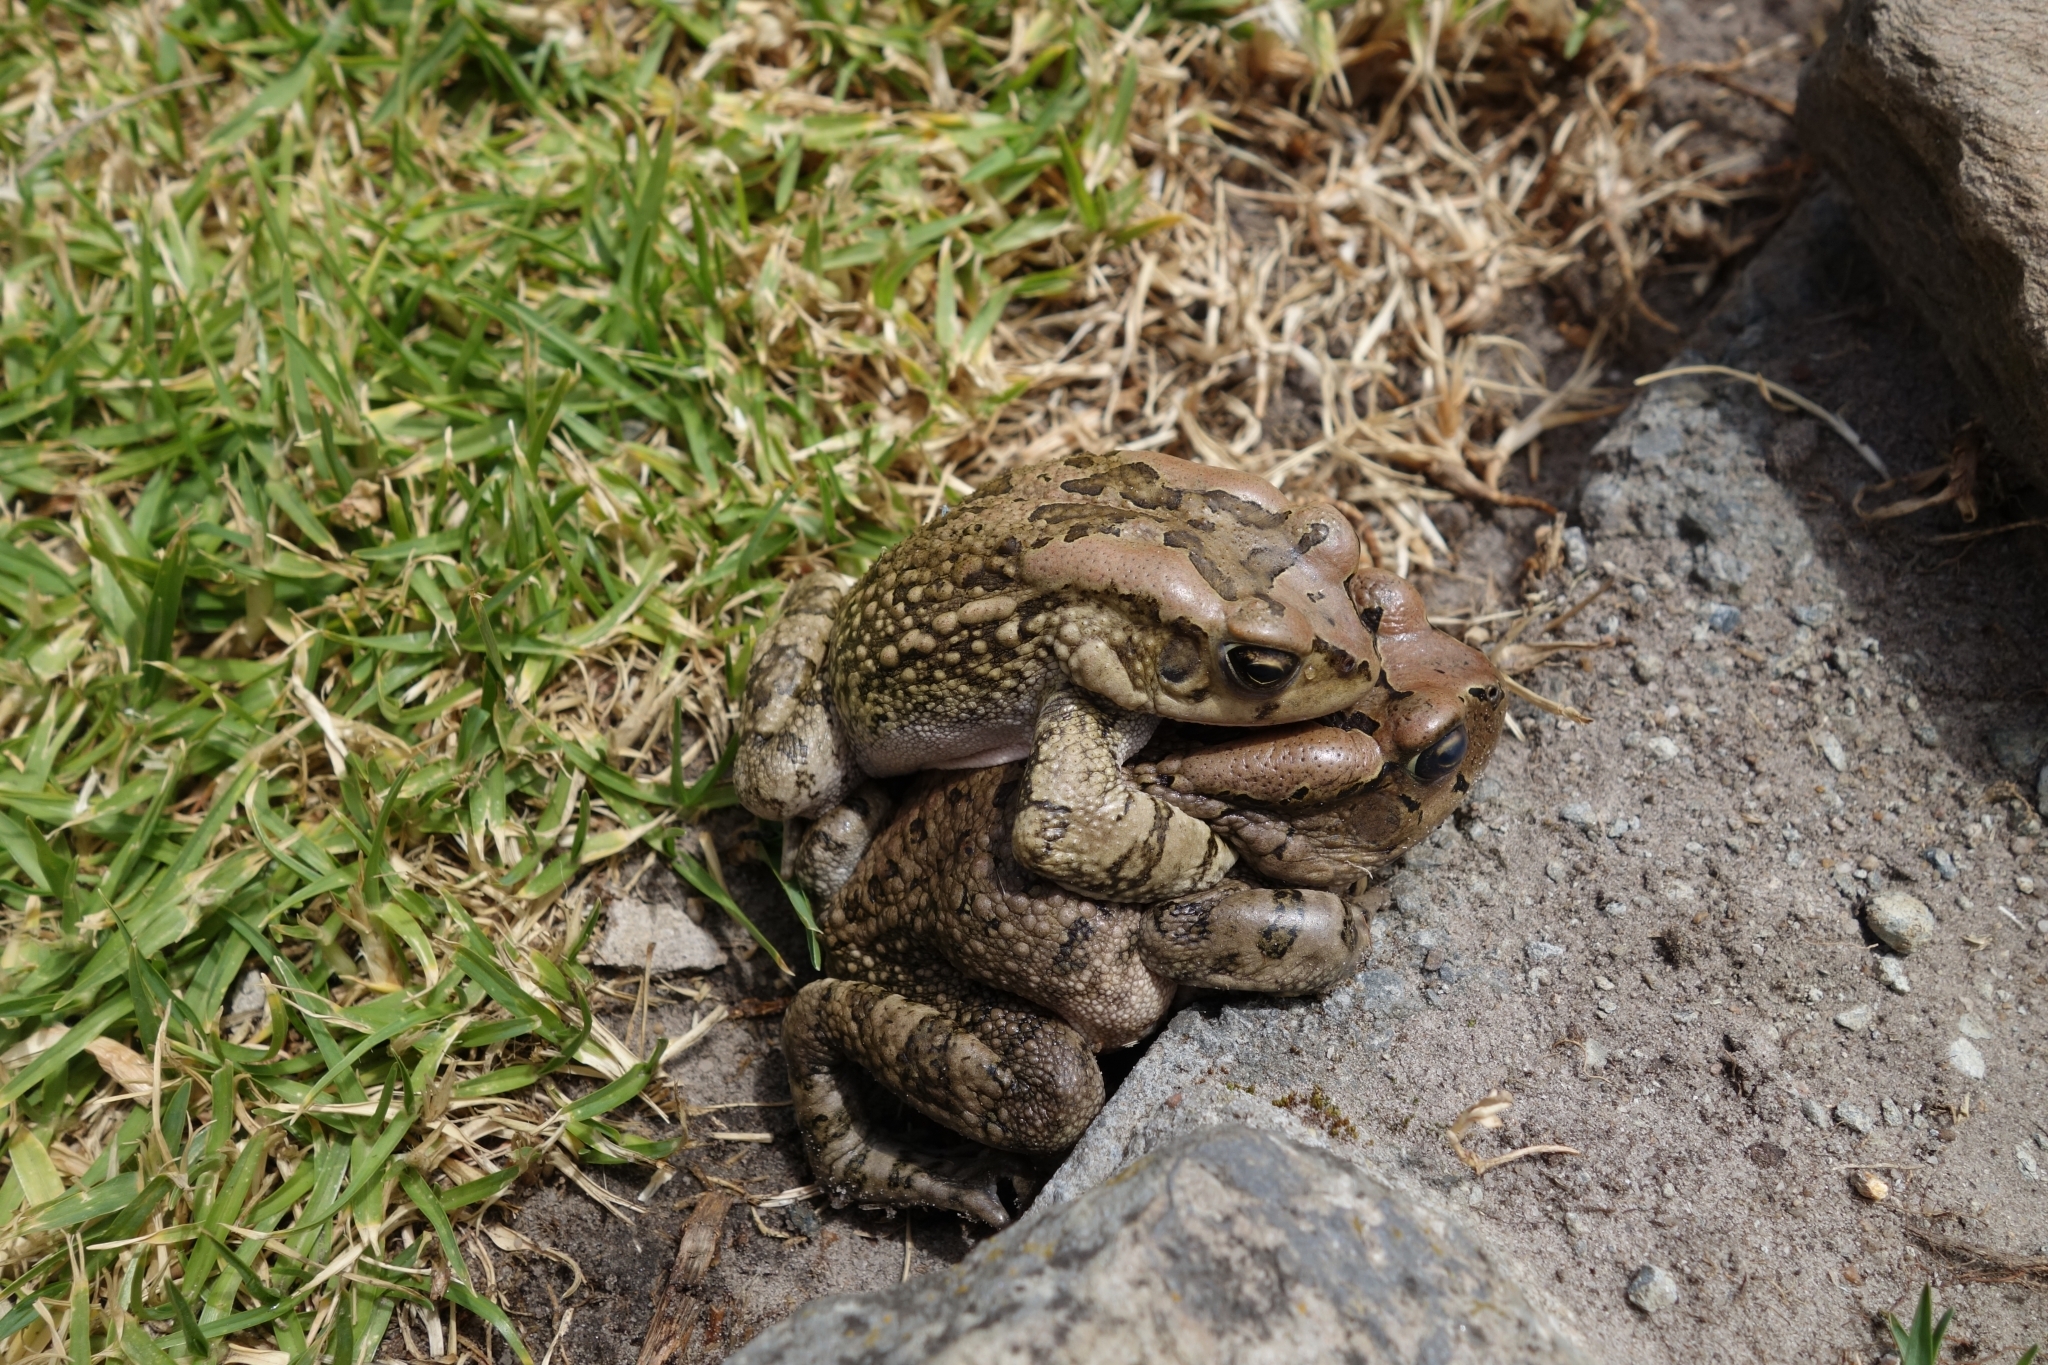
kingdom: Animalia
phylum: Chordata
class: Amphibia
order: Anura
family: Bufonidae
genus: Sclerophrys
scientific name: Sclerophrys capensis
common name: Ranger’s toad
